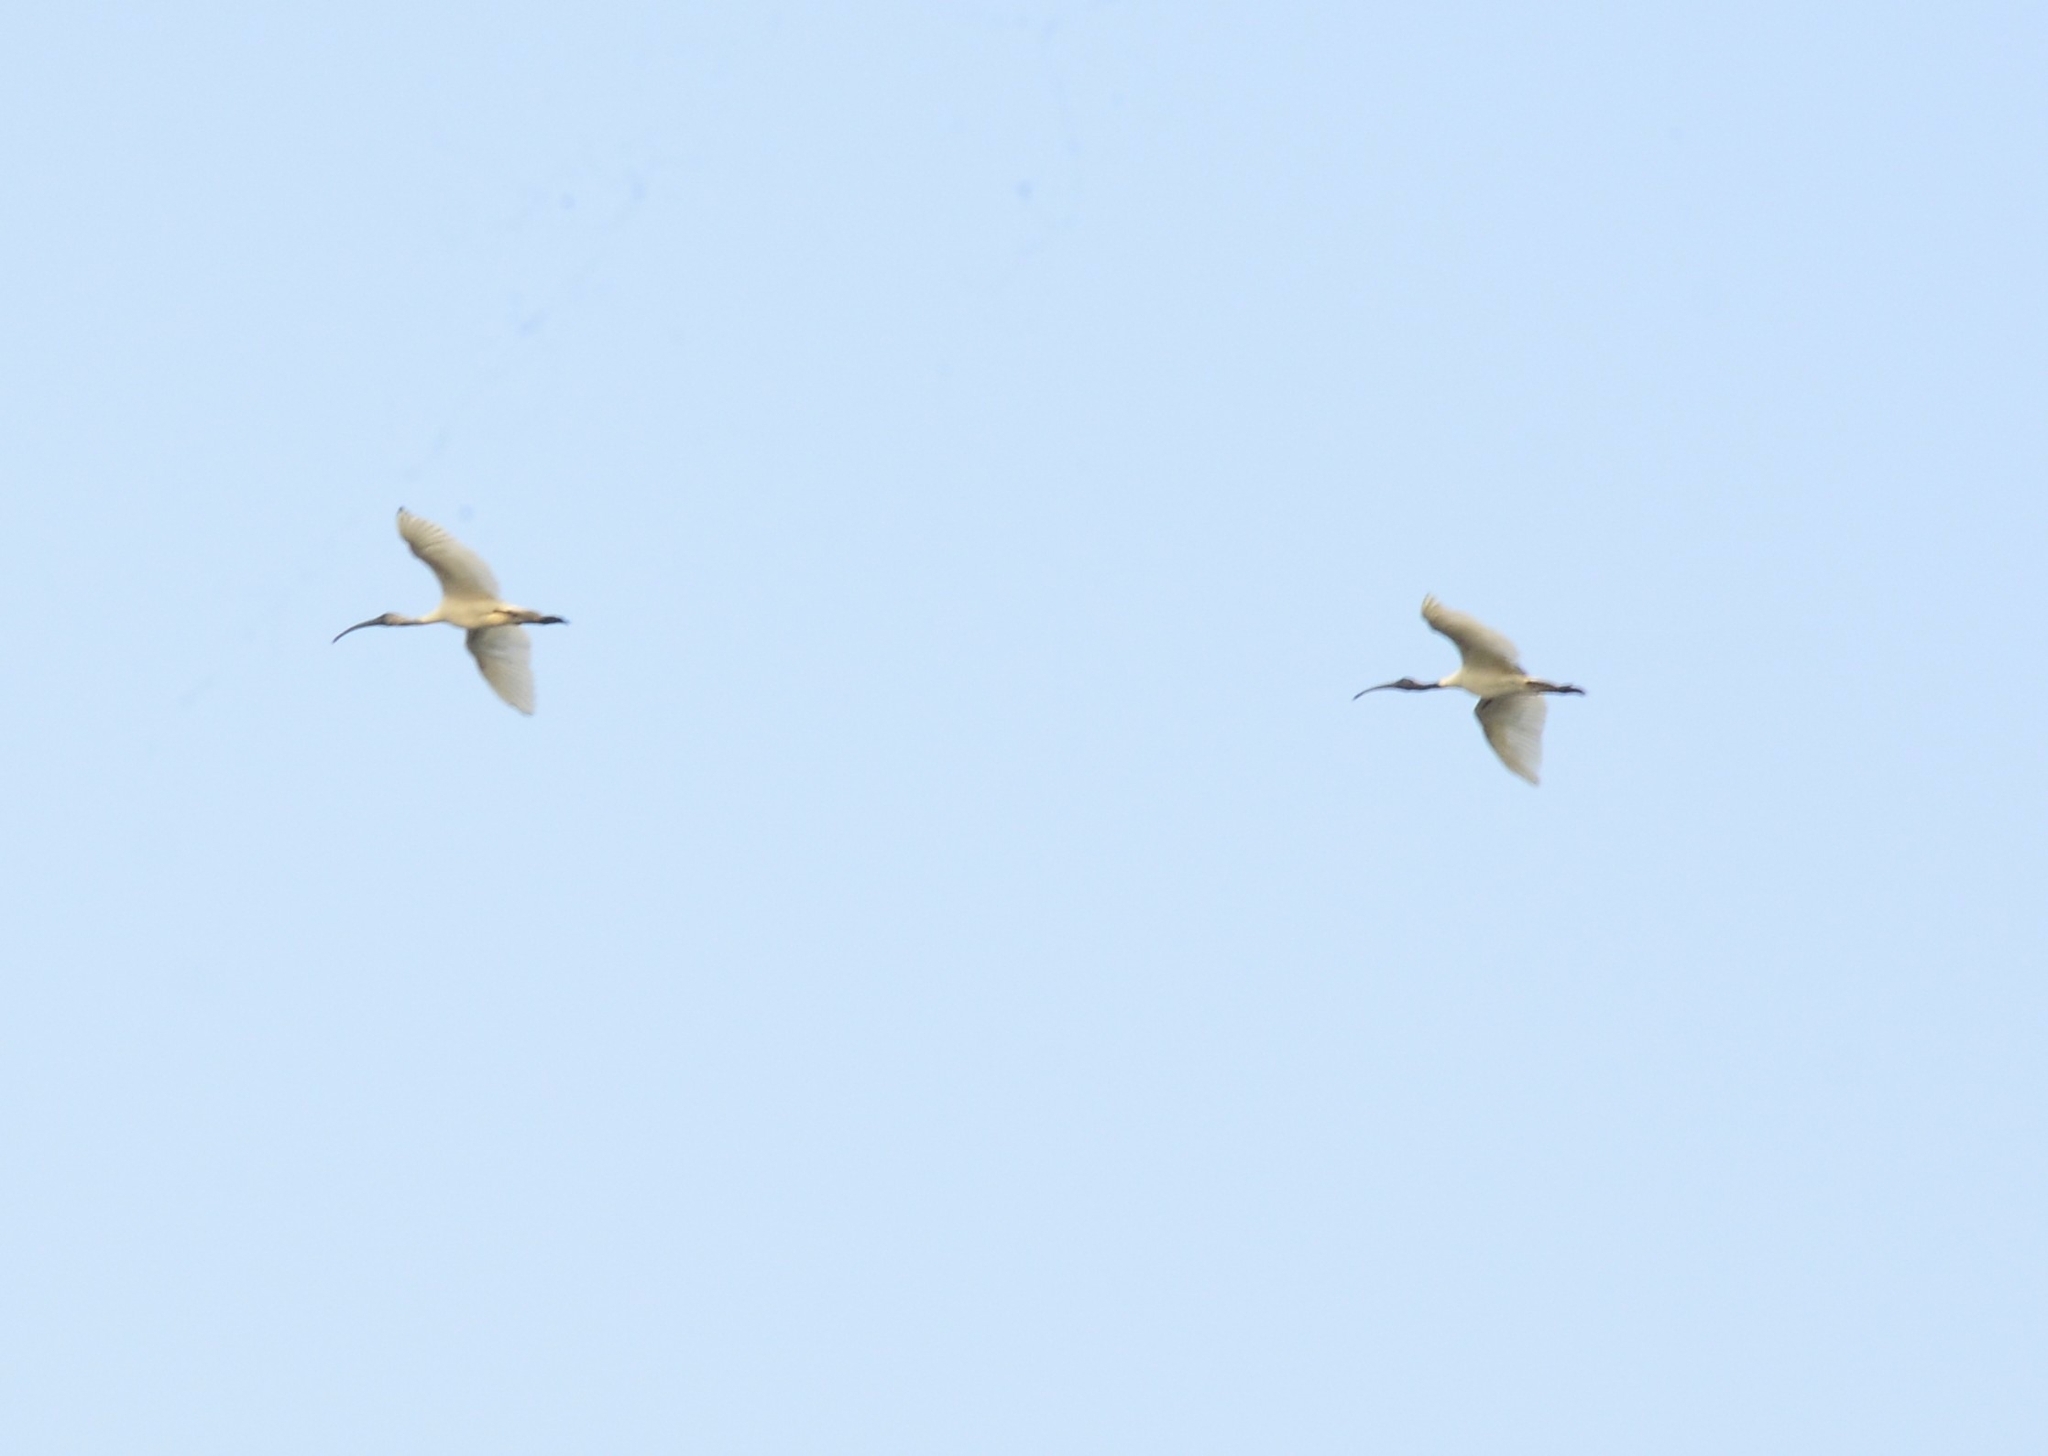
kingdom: Animalia
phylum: Chordata
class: Aves
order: Pelecaniformes
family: Threskiornithidae
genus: Threskiornis
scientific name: Threskiornis melanocephalus
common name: Black-headed ibis
